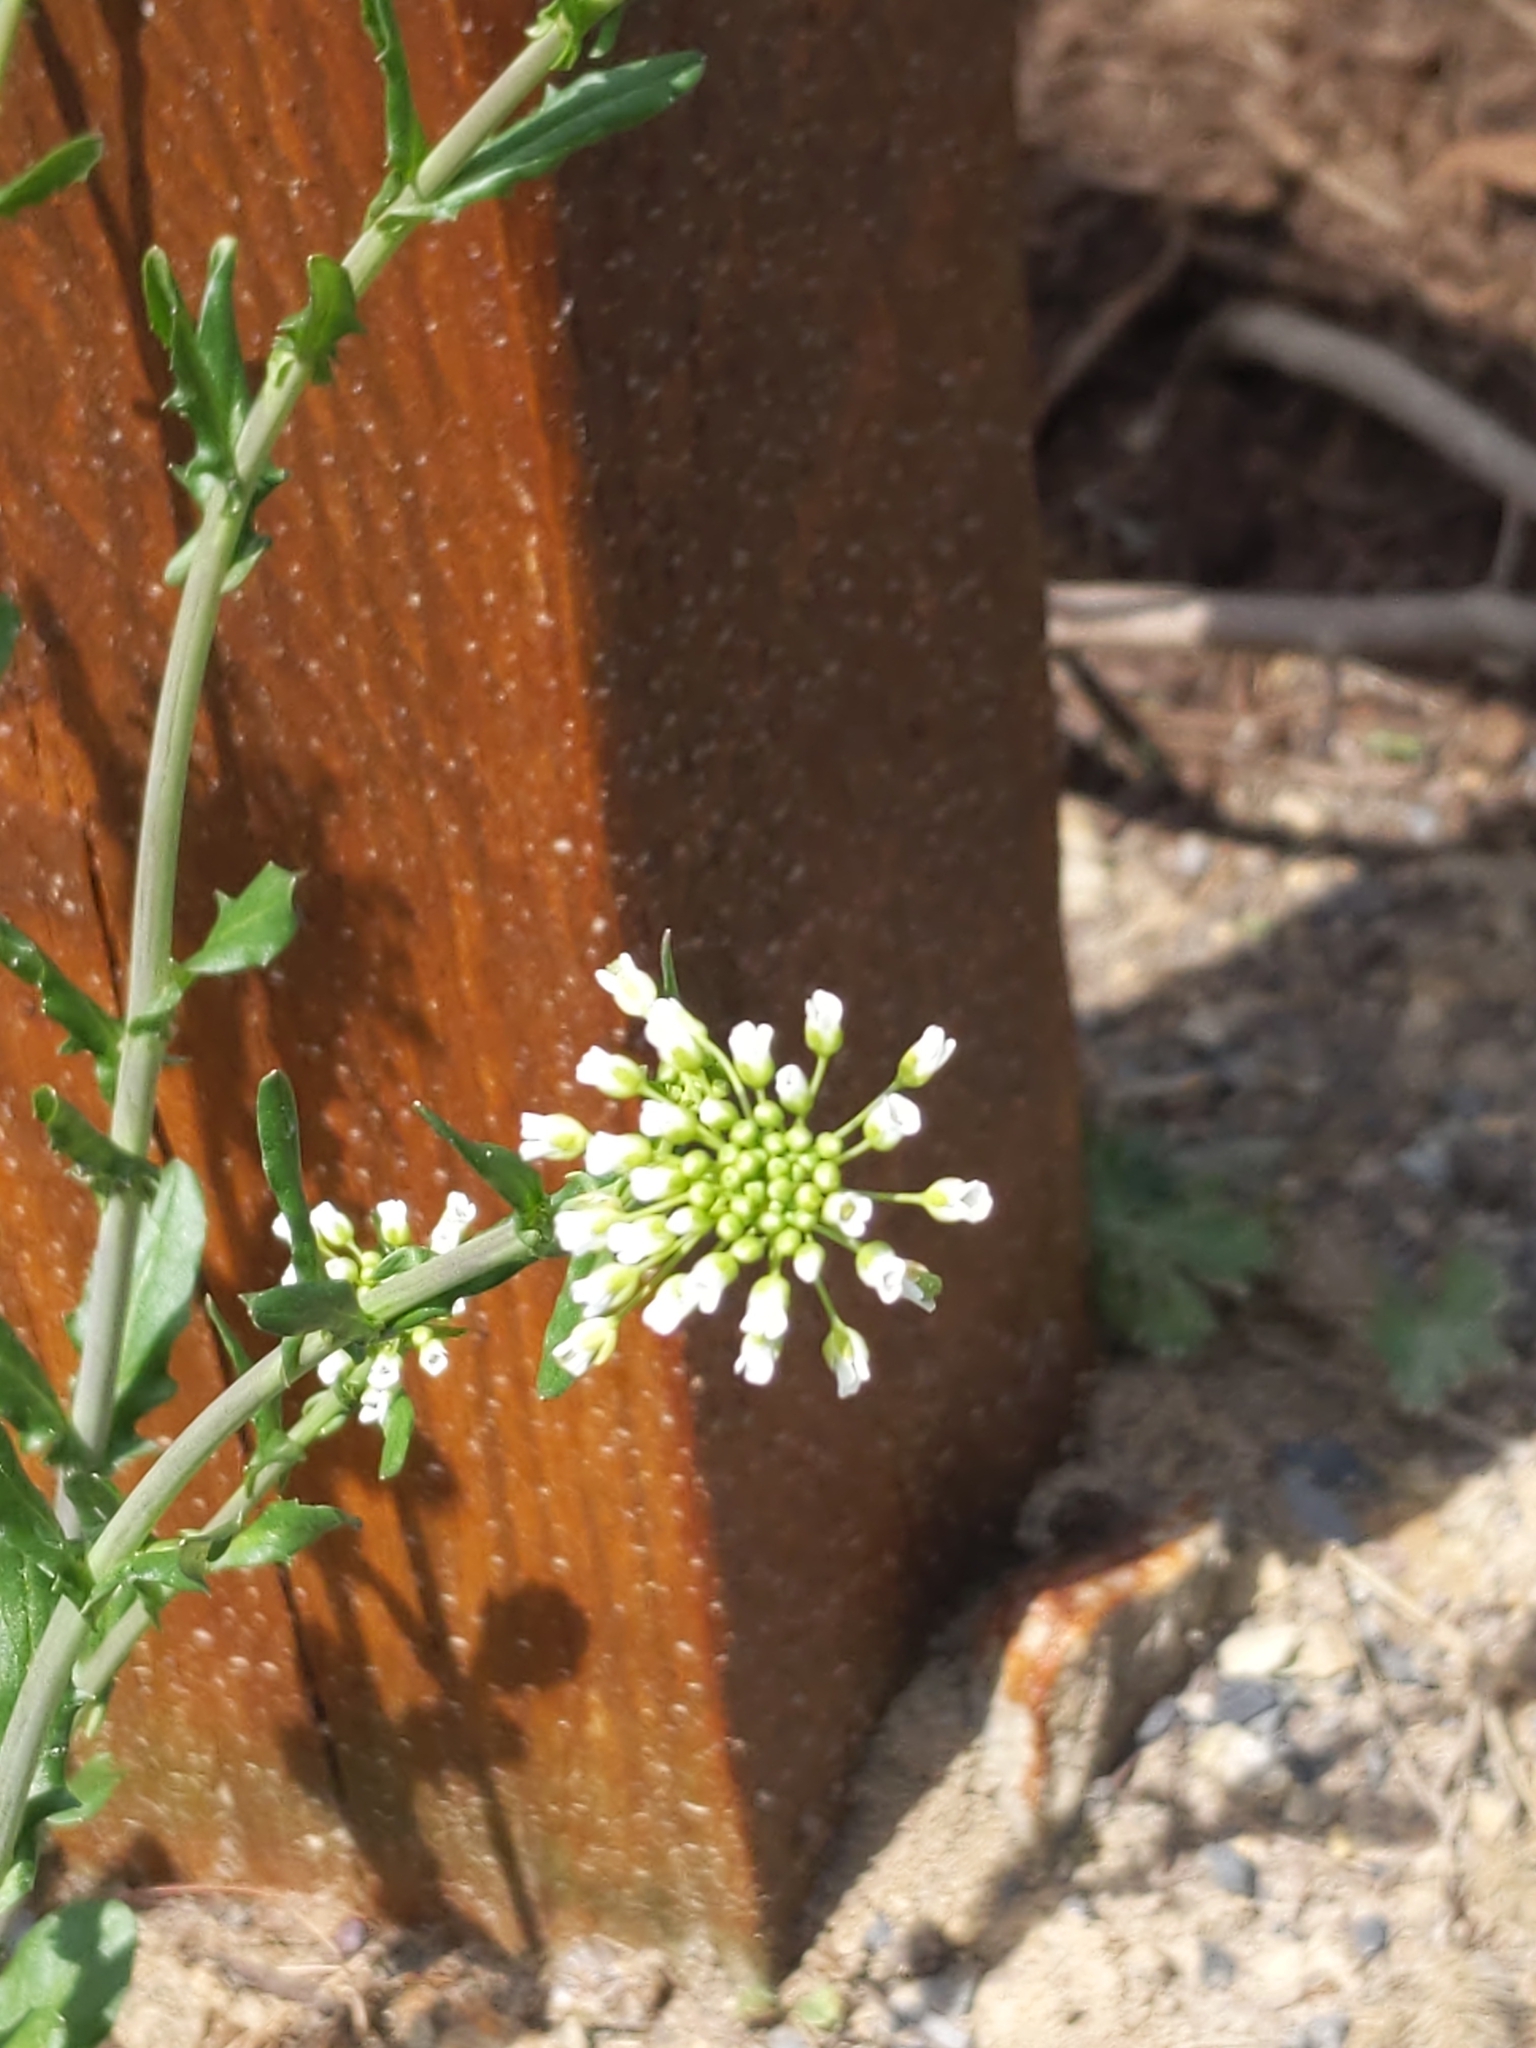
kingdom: Plantae
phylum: Tracheophyta
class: Magnoliopsida
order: Brassicales
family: Brassicaceae
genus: Mummenhoffia
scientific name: Mummenhoffia alliacea
